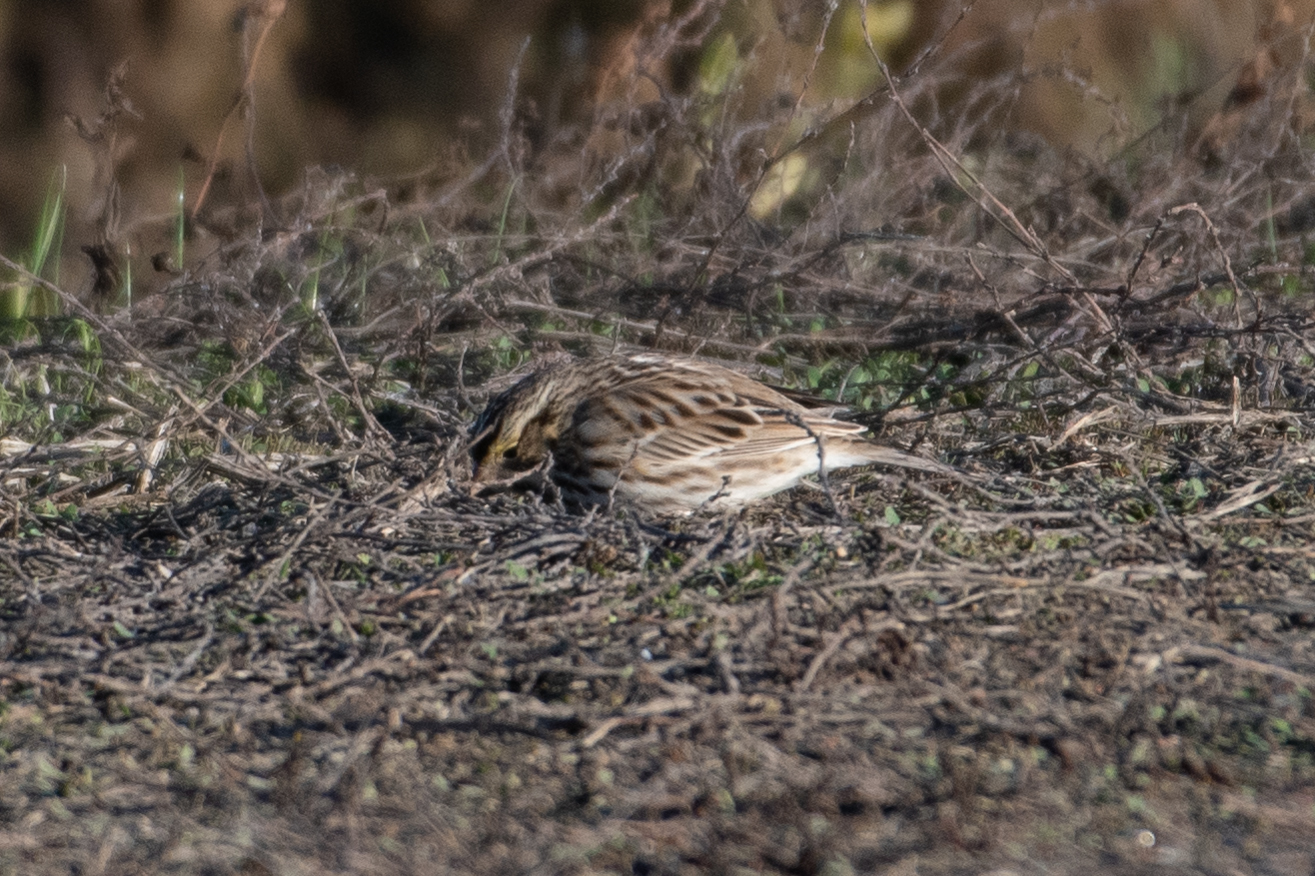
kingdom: Animalia
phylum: Chordata
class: Aves
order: Passeriformes
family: Passerellidae
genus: Passerculus
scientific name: Passerculus sandwichensis
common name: Savannah sparrow
